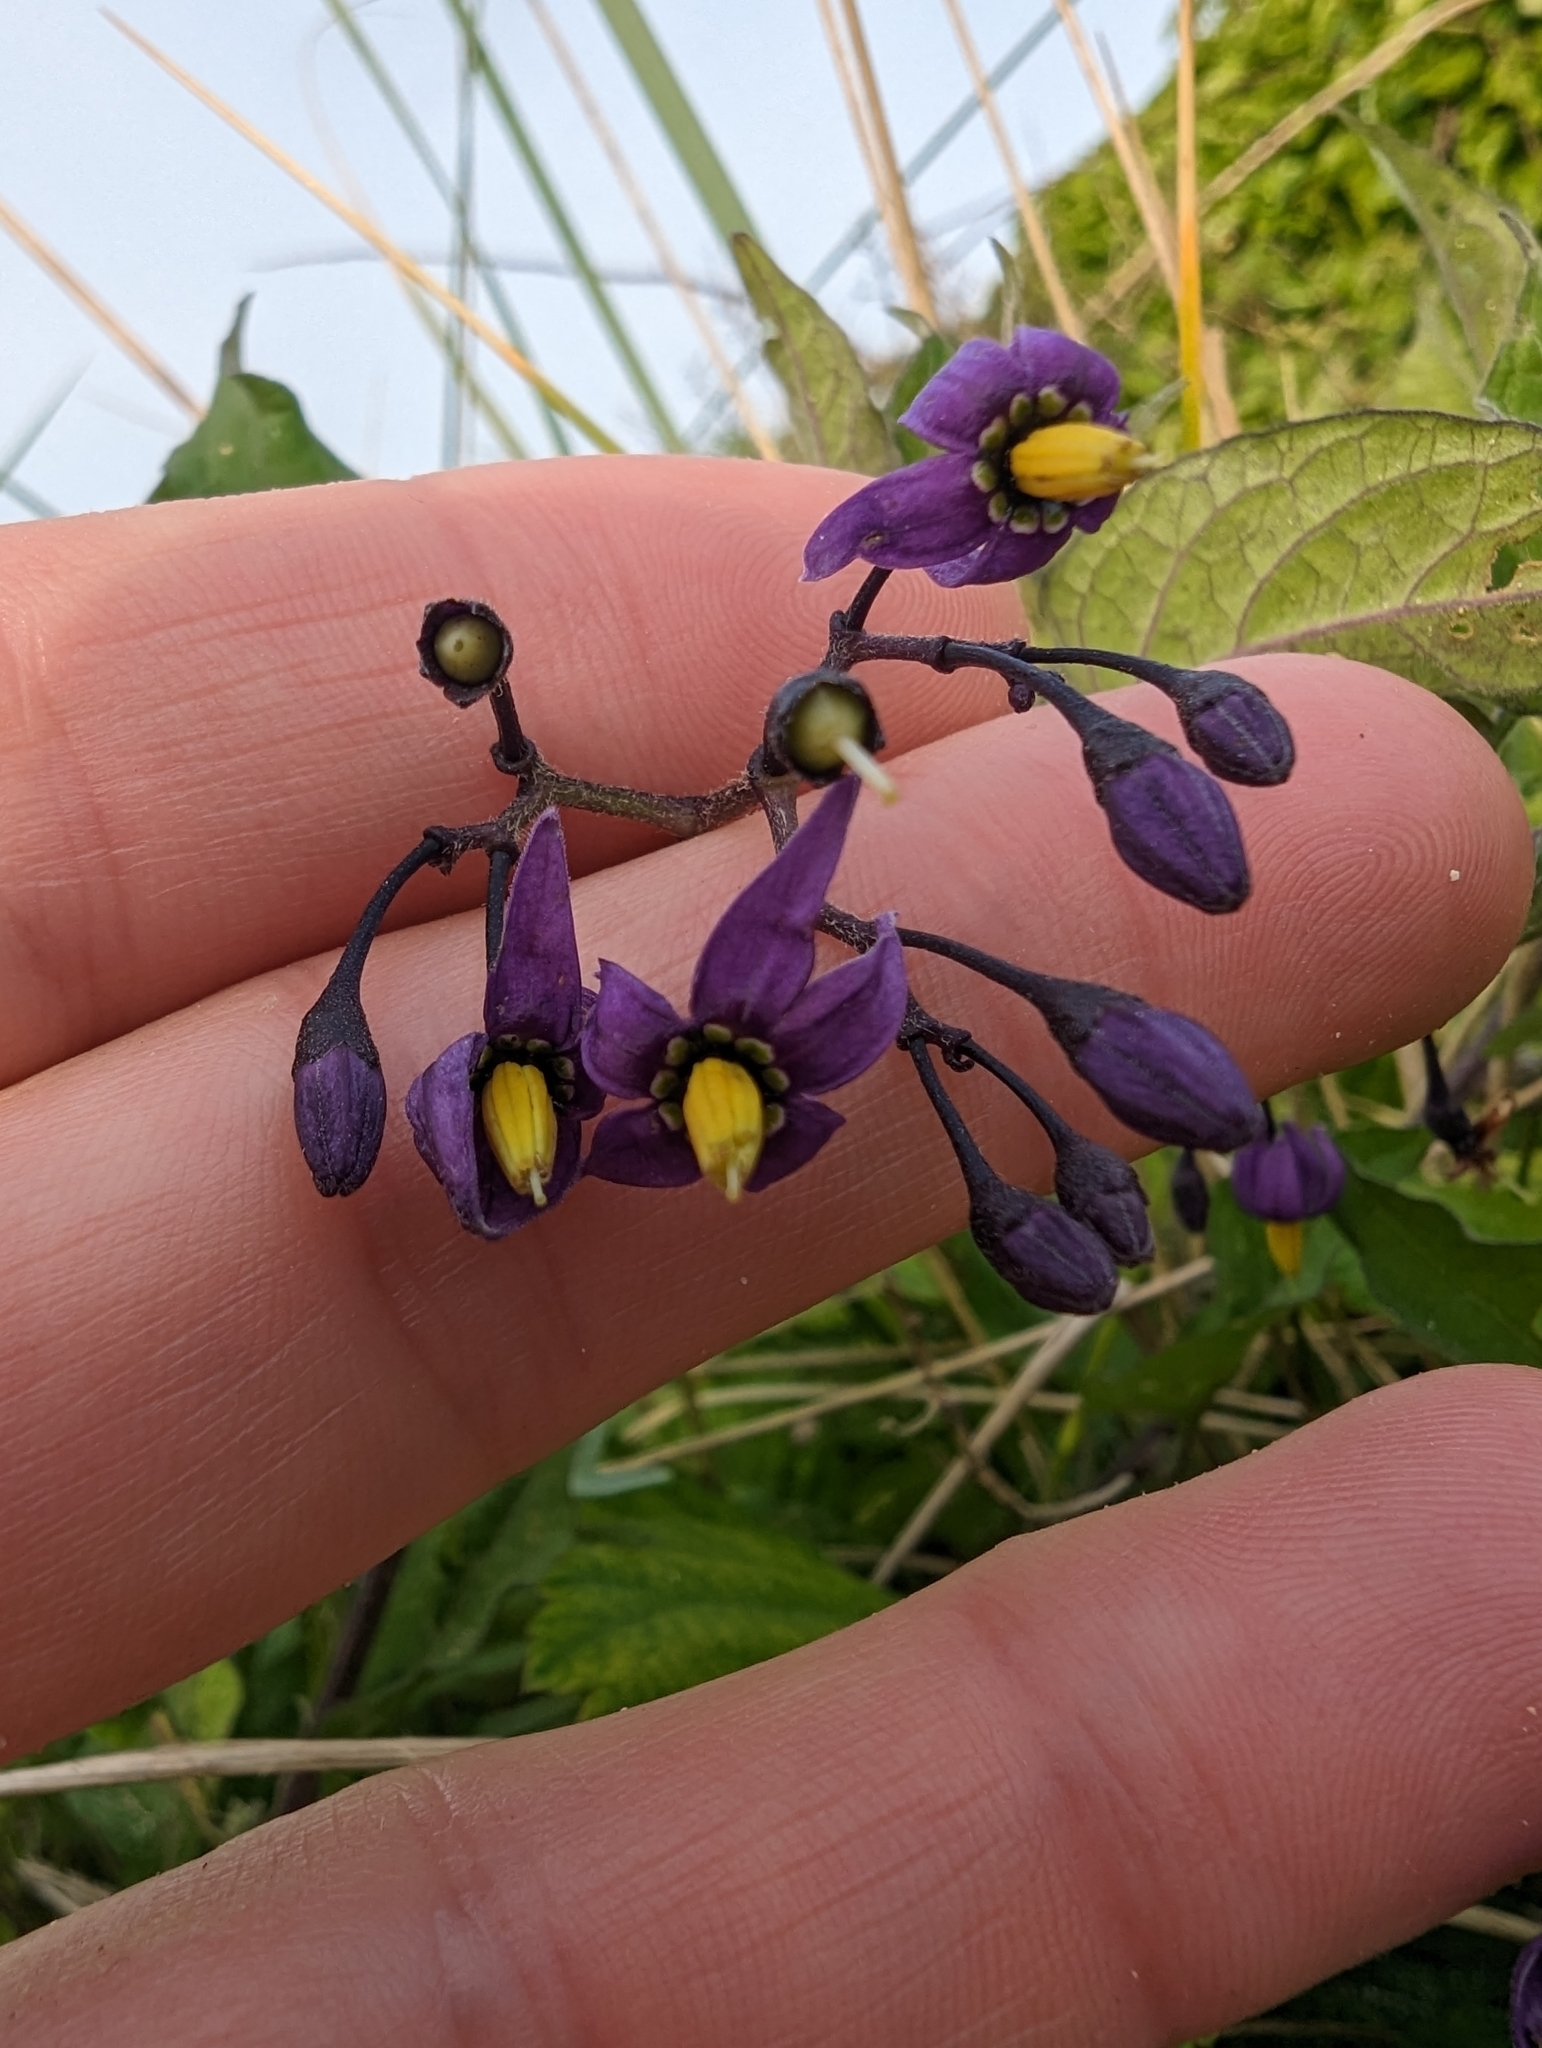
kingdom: Plantae
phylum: Tracheophyta
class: Magnoliopsida
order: Solanales
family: Solanaceae
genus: Solanum
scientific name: Solanum dulcamara
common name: Climbing nightshade
